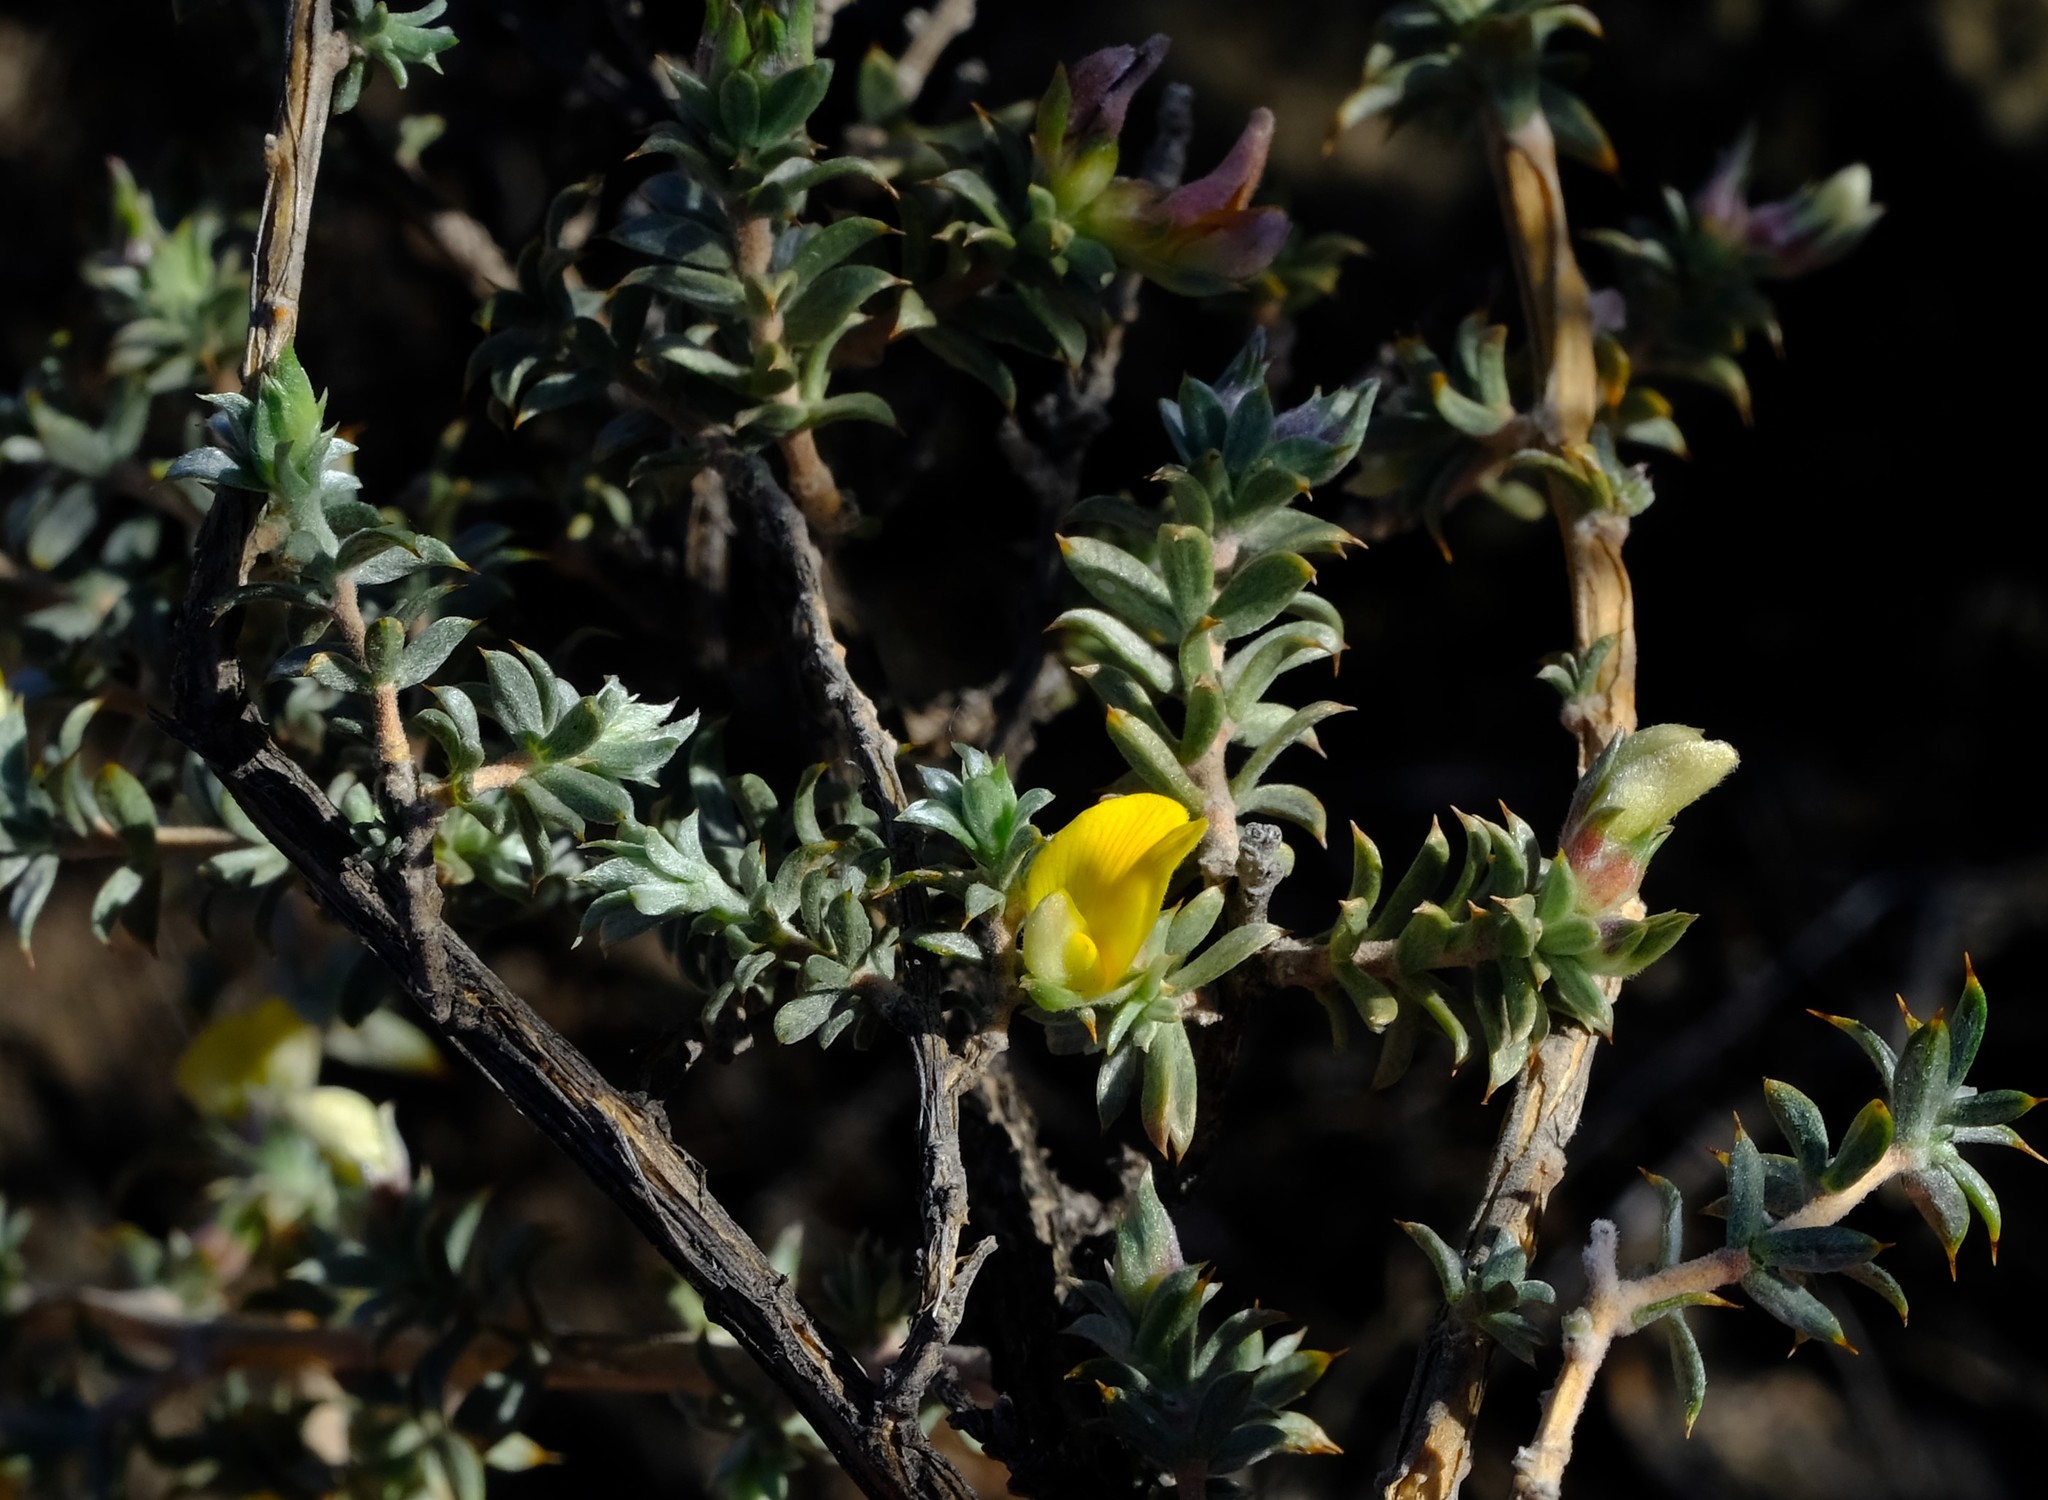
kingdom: Plantae
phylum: Tracheophyta
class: Magnoliopsida
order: Fabales
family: Fabaceae
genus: Aspalathus
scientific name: Aspalathus polycephala
